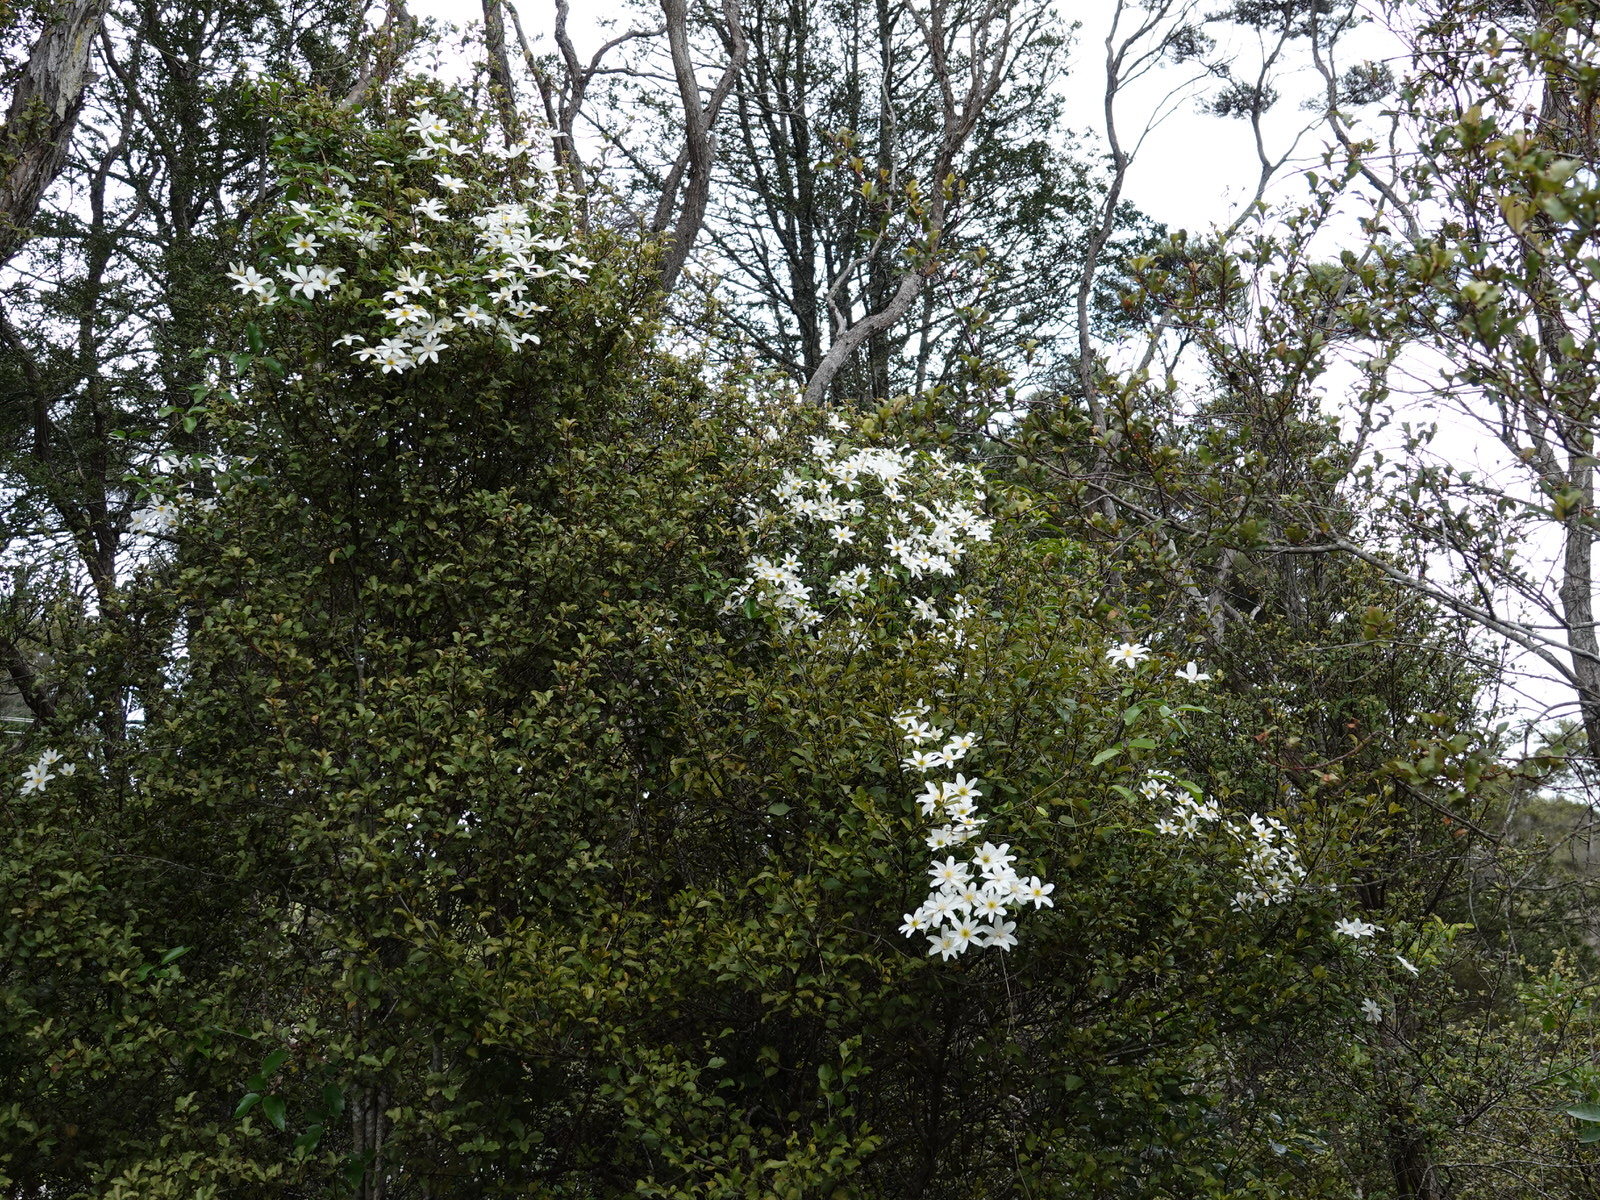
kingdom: Plantae
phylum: Tracheophyta
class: Magnoliopsida
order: Ranunculales
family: Ranunculaceae
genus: Clematis
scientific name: Clematis paniculata
